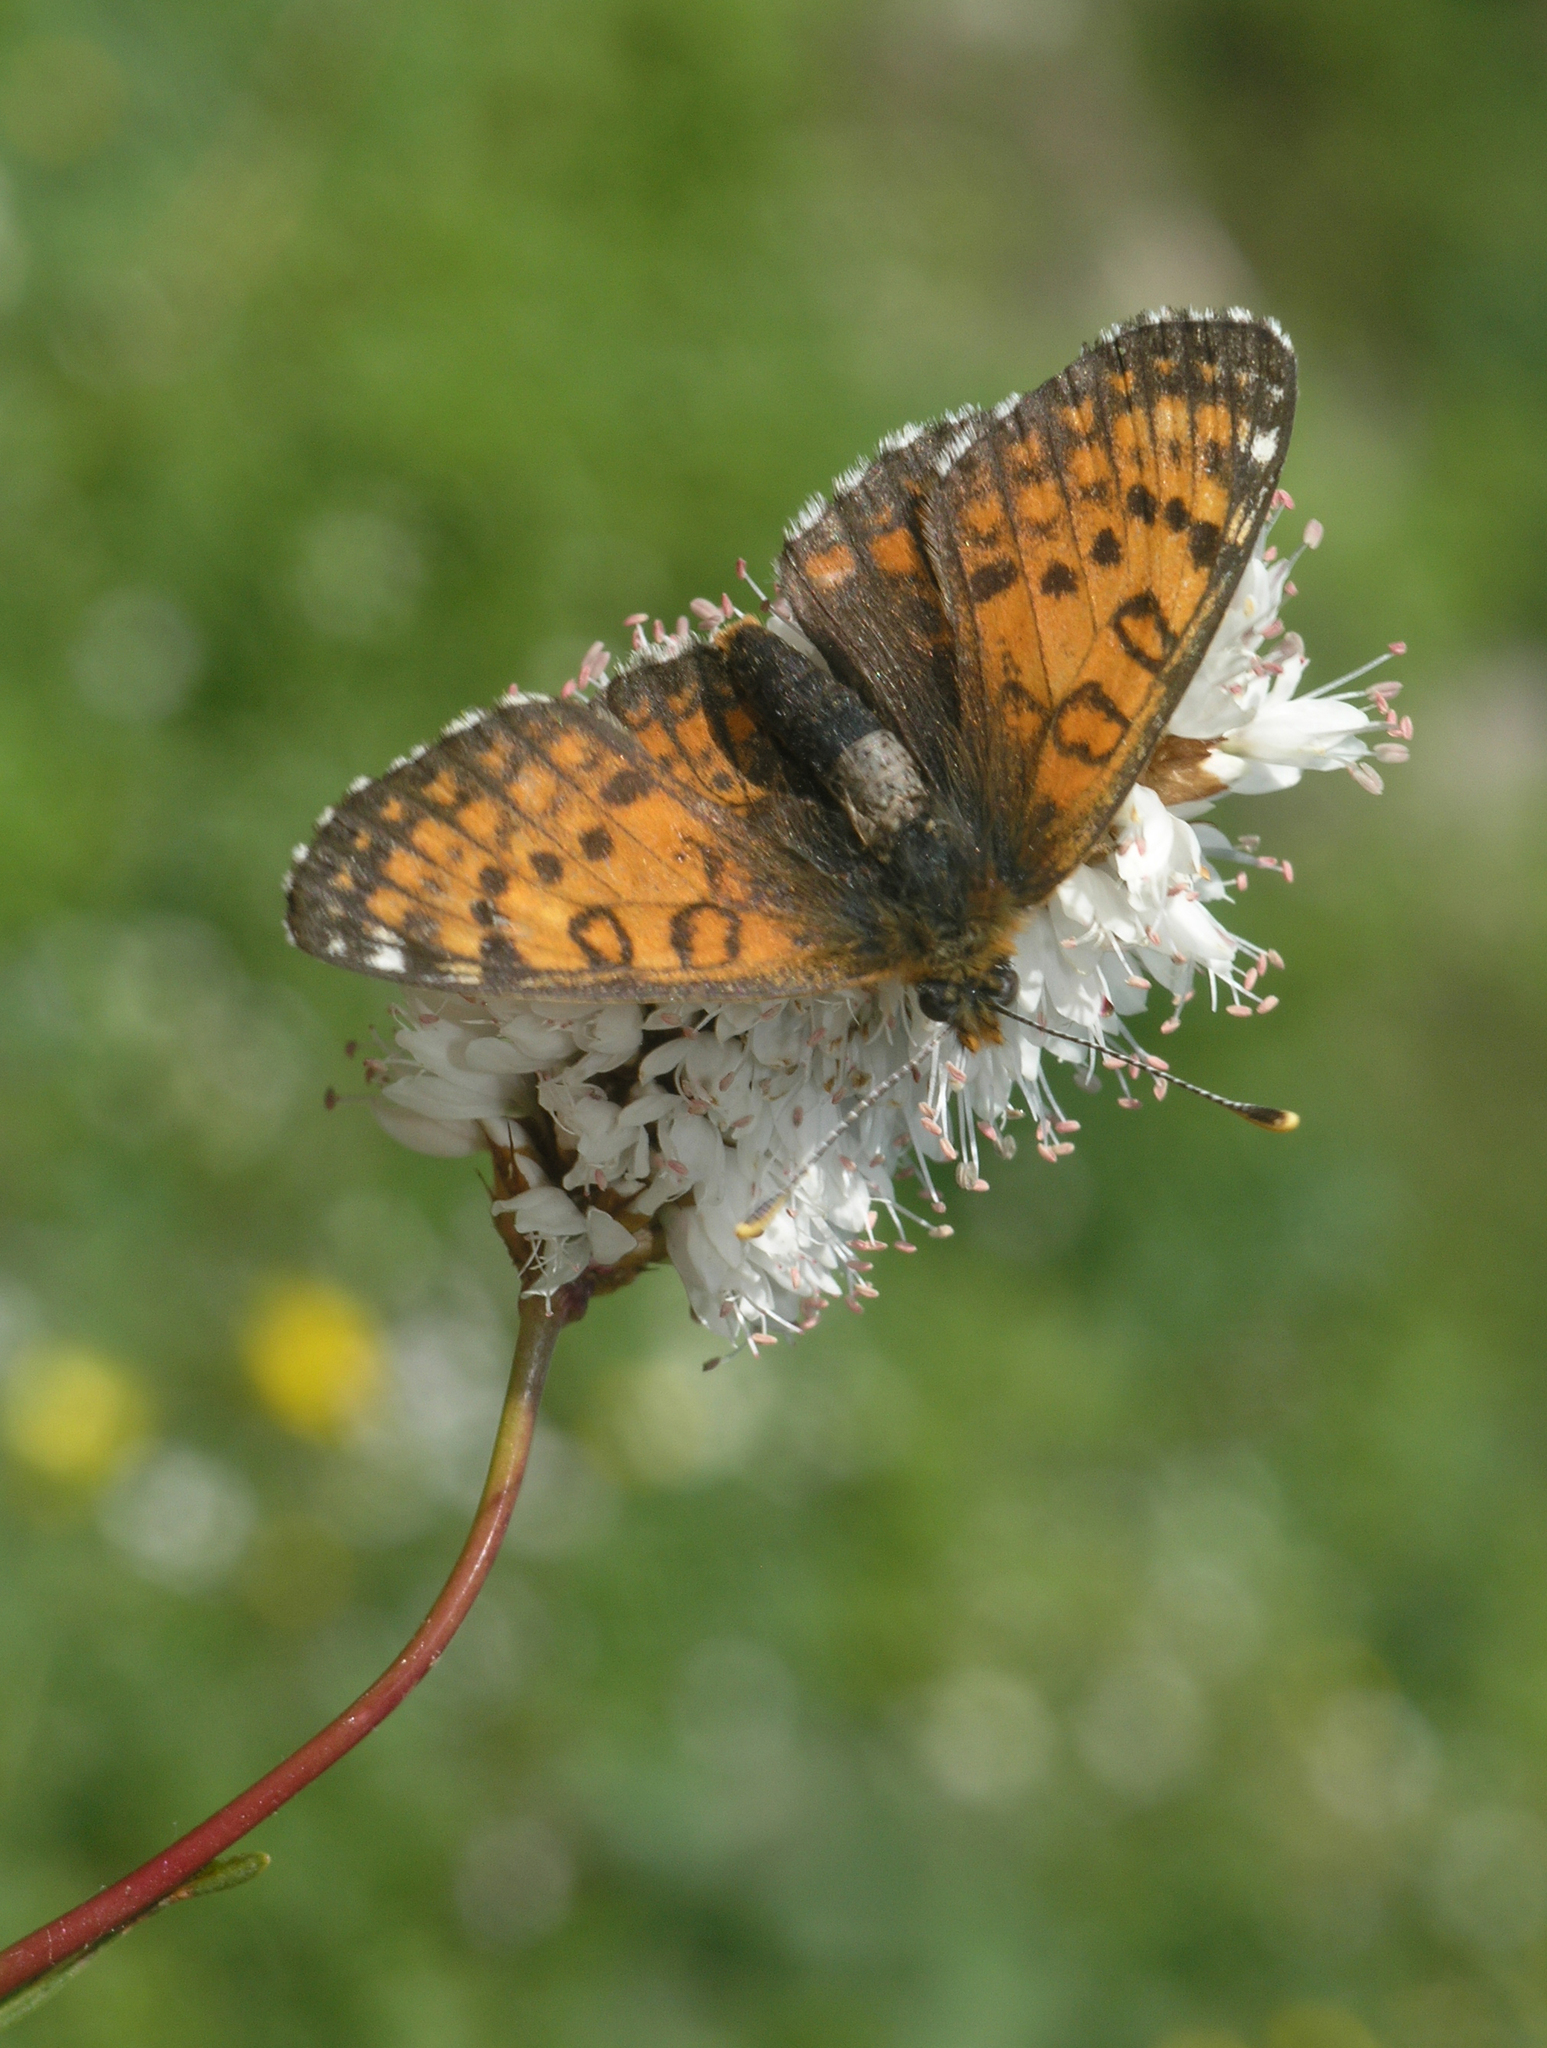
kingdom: Plantae
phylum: Tracheophyta
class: Magnoliopsida
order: Caryophyllales
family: Polygonaceae
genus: Bistorta
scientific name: Bistorta elliptica
